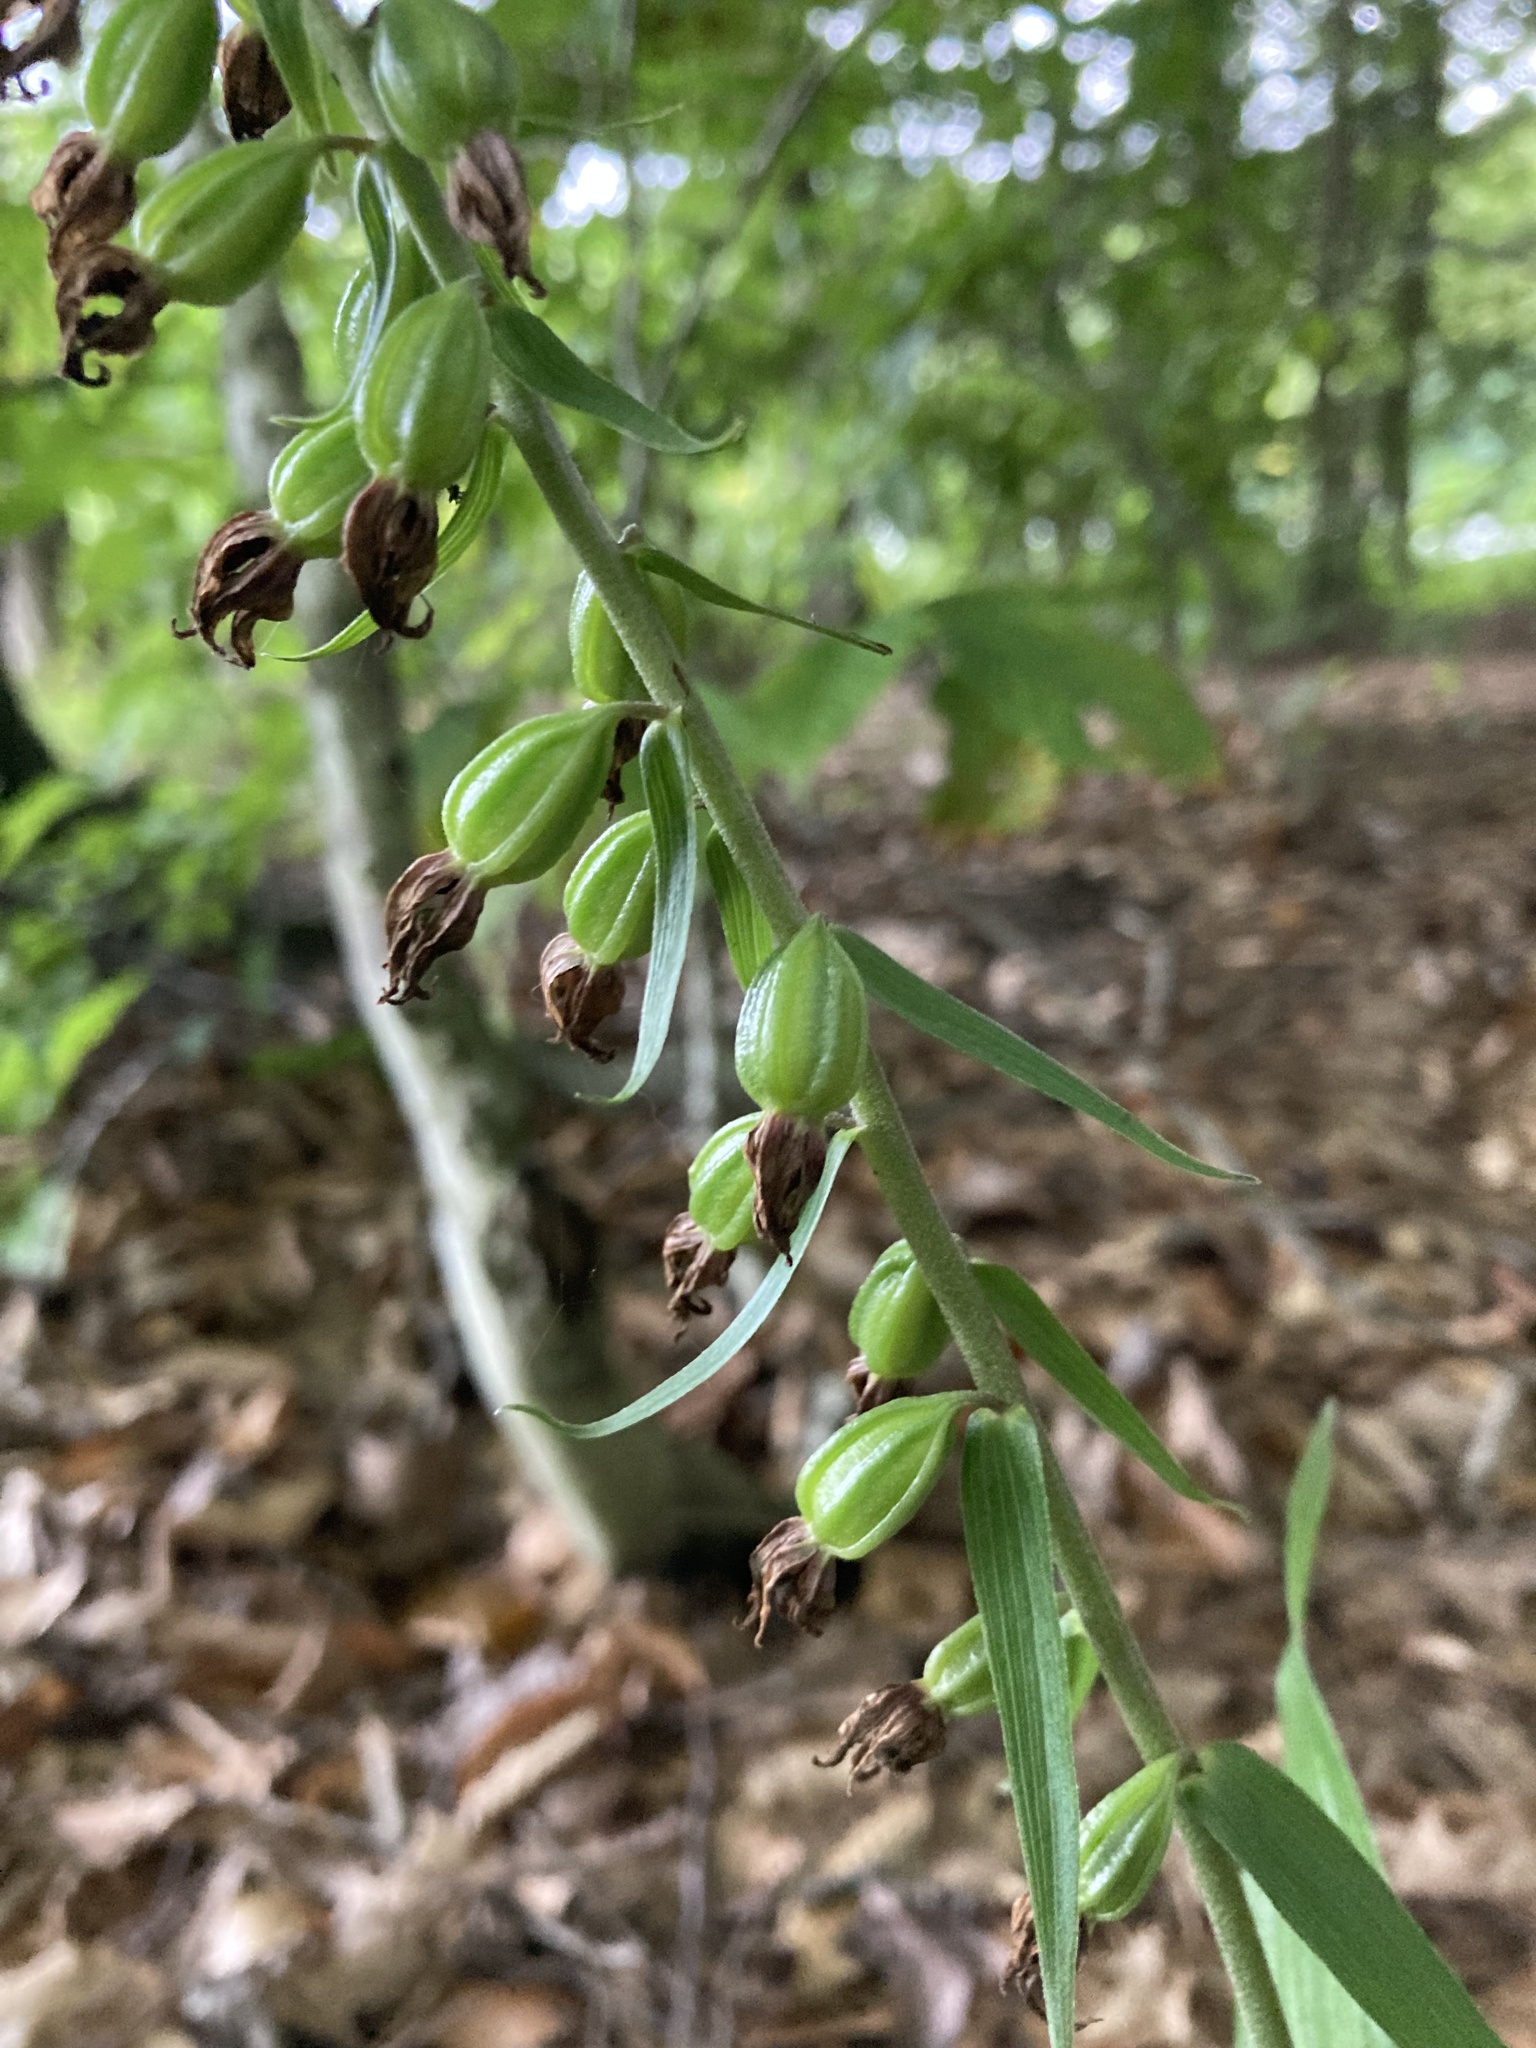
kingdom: Plantae
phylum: Tracheophyta
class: Liliopsida
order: Asparagales
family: Orchidaceae
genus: Epipactis
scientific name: Epipactis helleborine
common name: Broad-leaved helleborine
